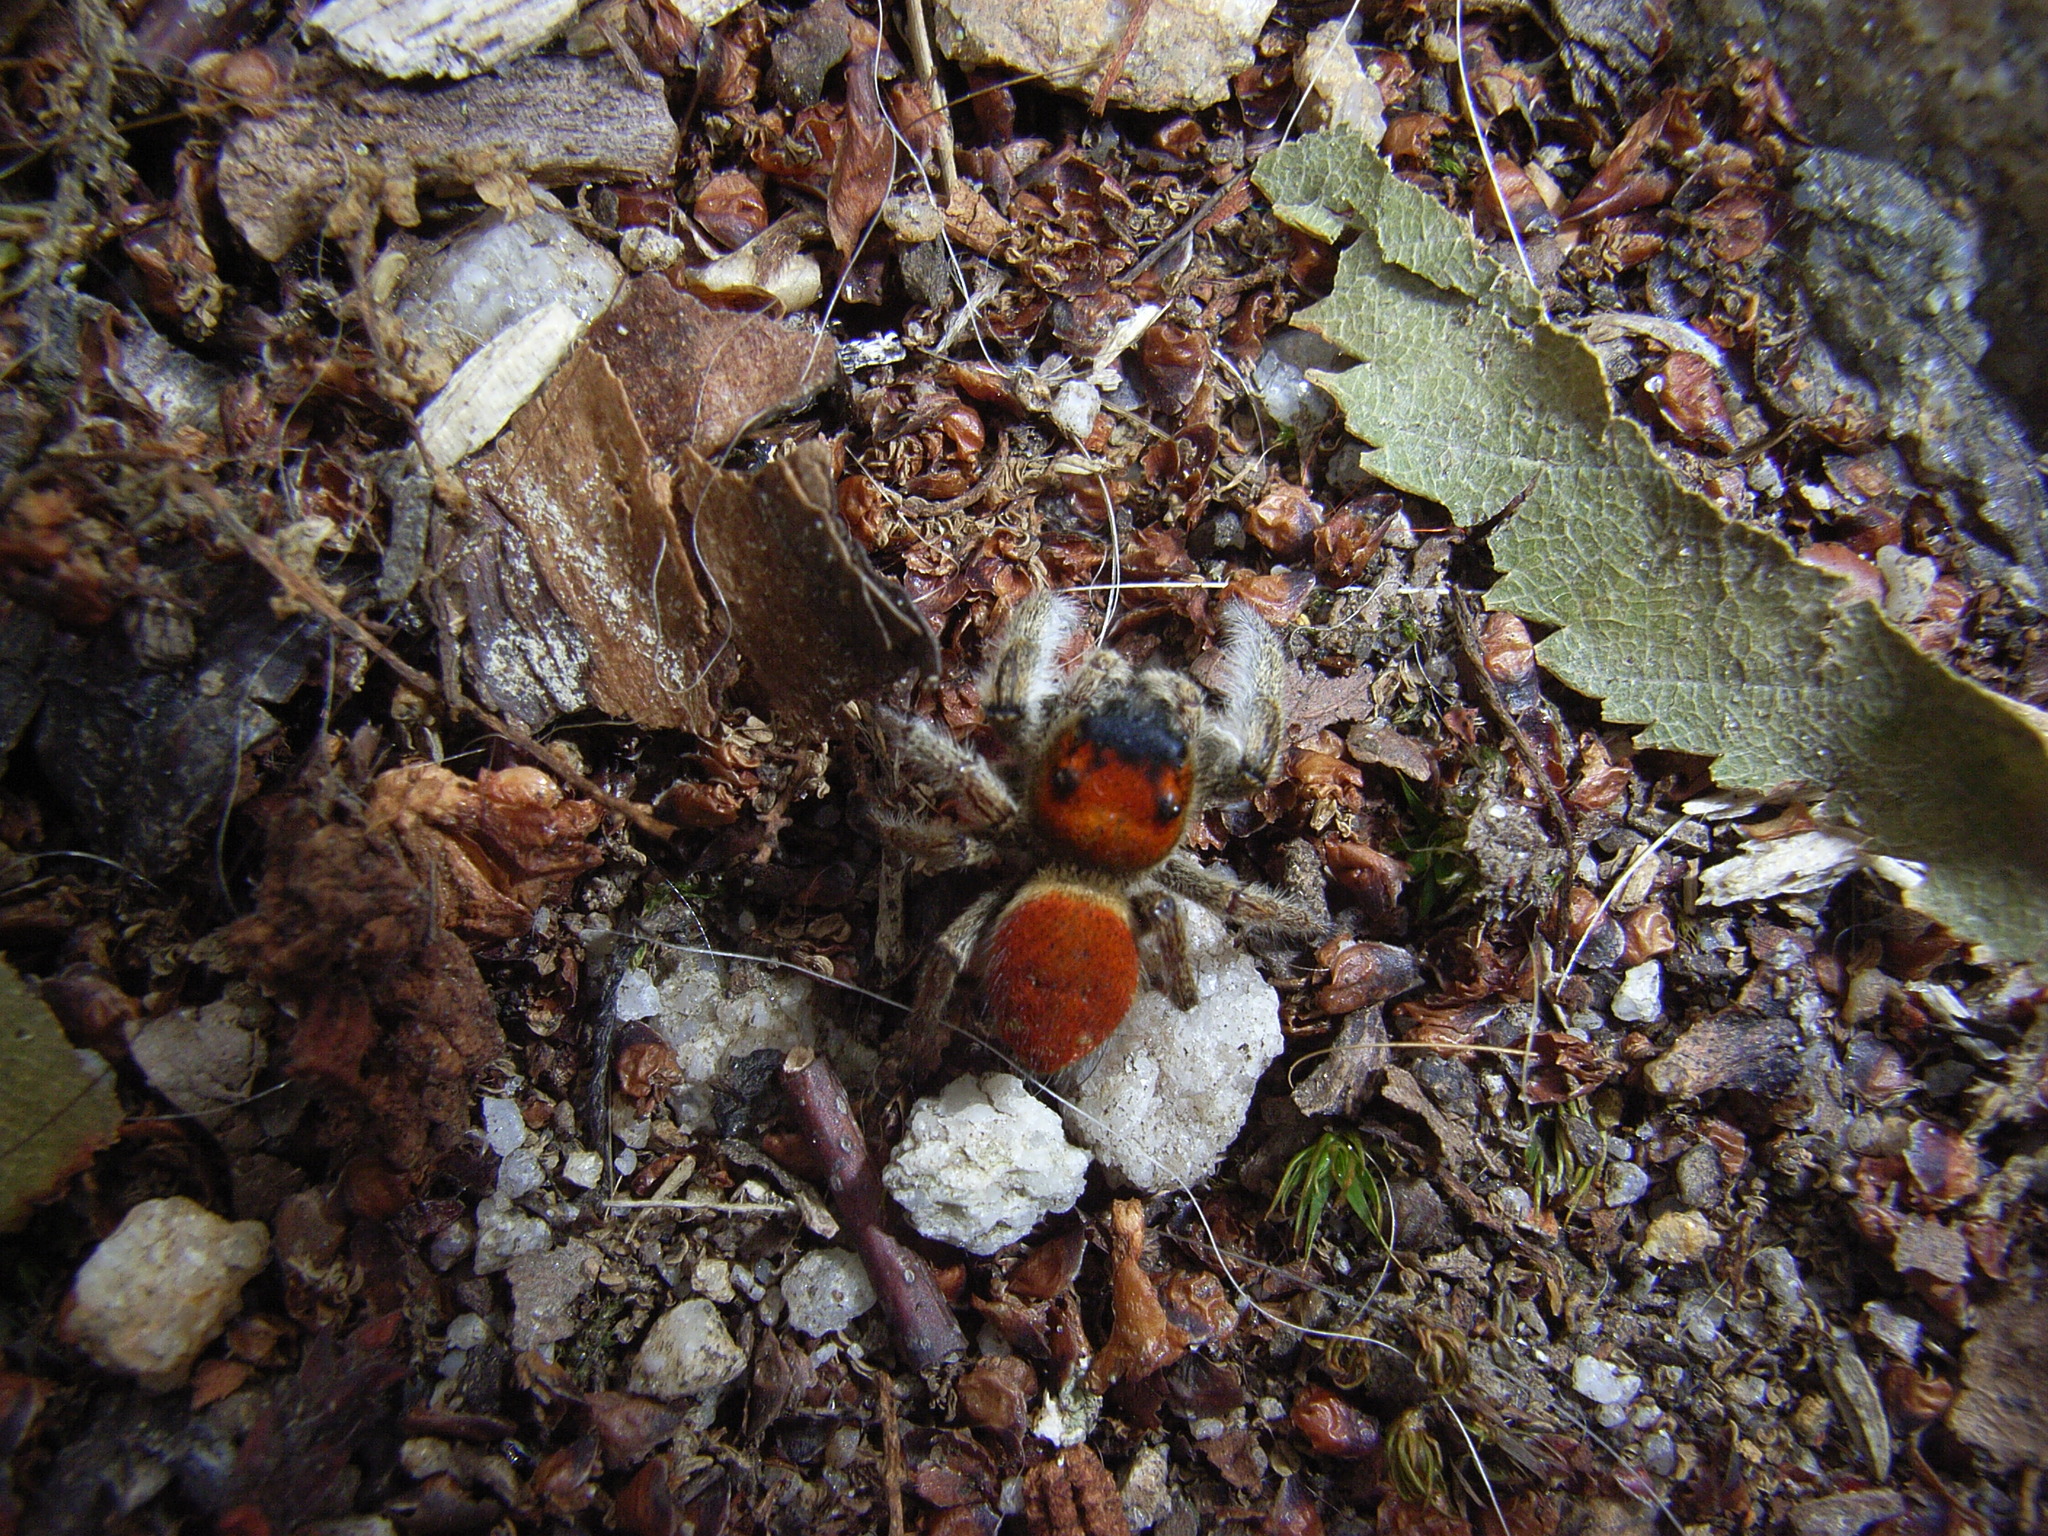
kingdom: Animalia
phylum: Arthropoda
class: Arachnida
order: Araneae
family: Salticidae
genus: Phidippus
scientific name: Phidippus whitmani
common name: Whitman's jumping spider
